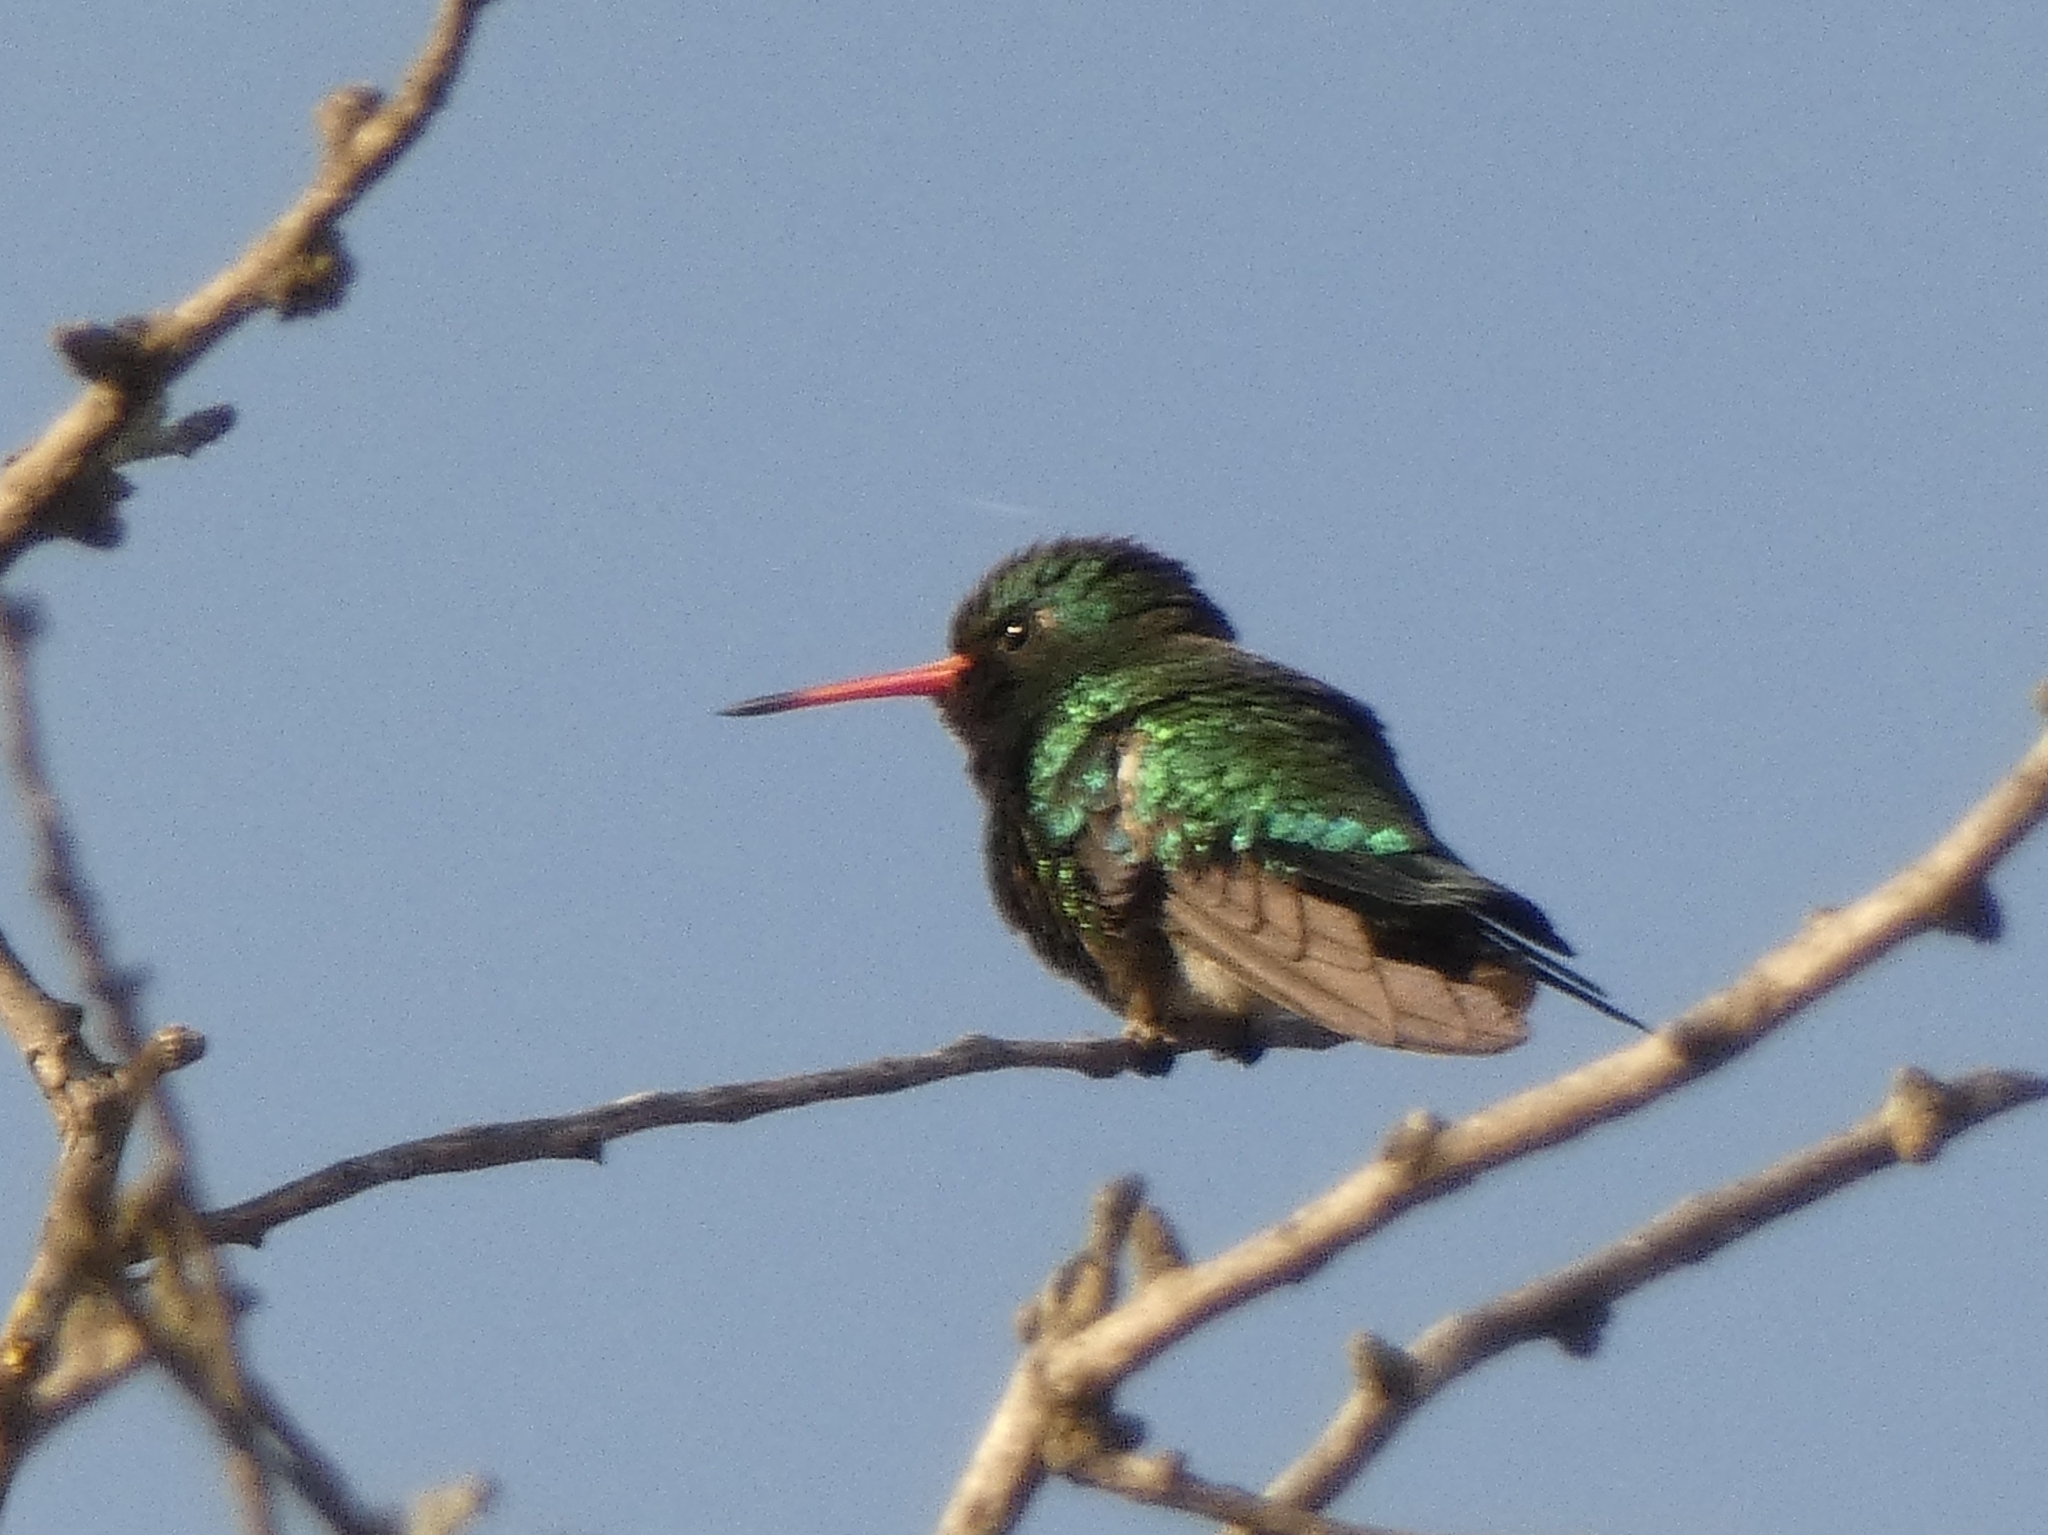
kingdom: Animalia
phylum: Chordata
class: Aves
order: Apodiformes
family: Trochilidae
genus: Chlorostilbon
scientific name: Chlorostilbon lucidus
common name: Glittering-bellied emerald
